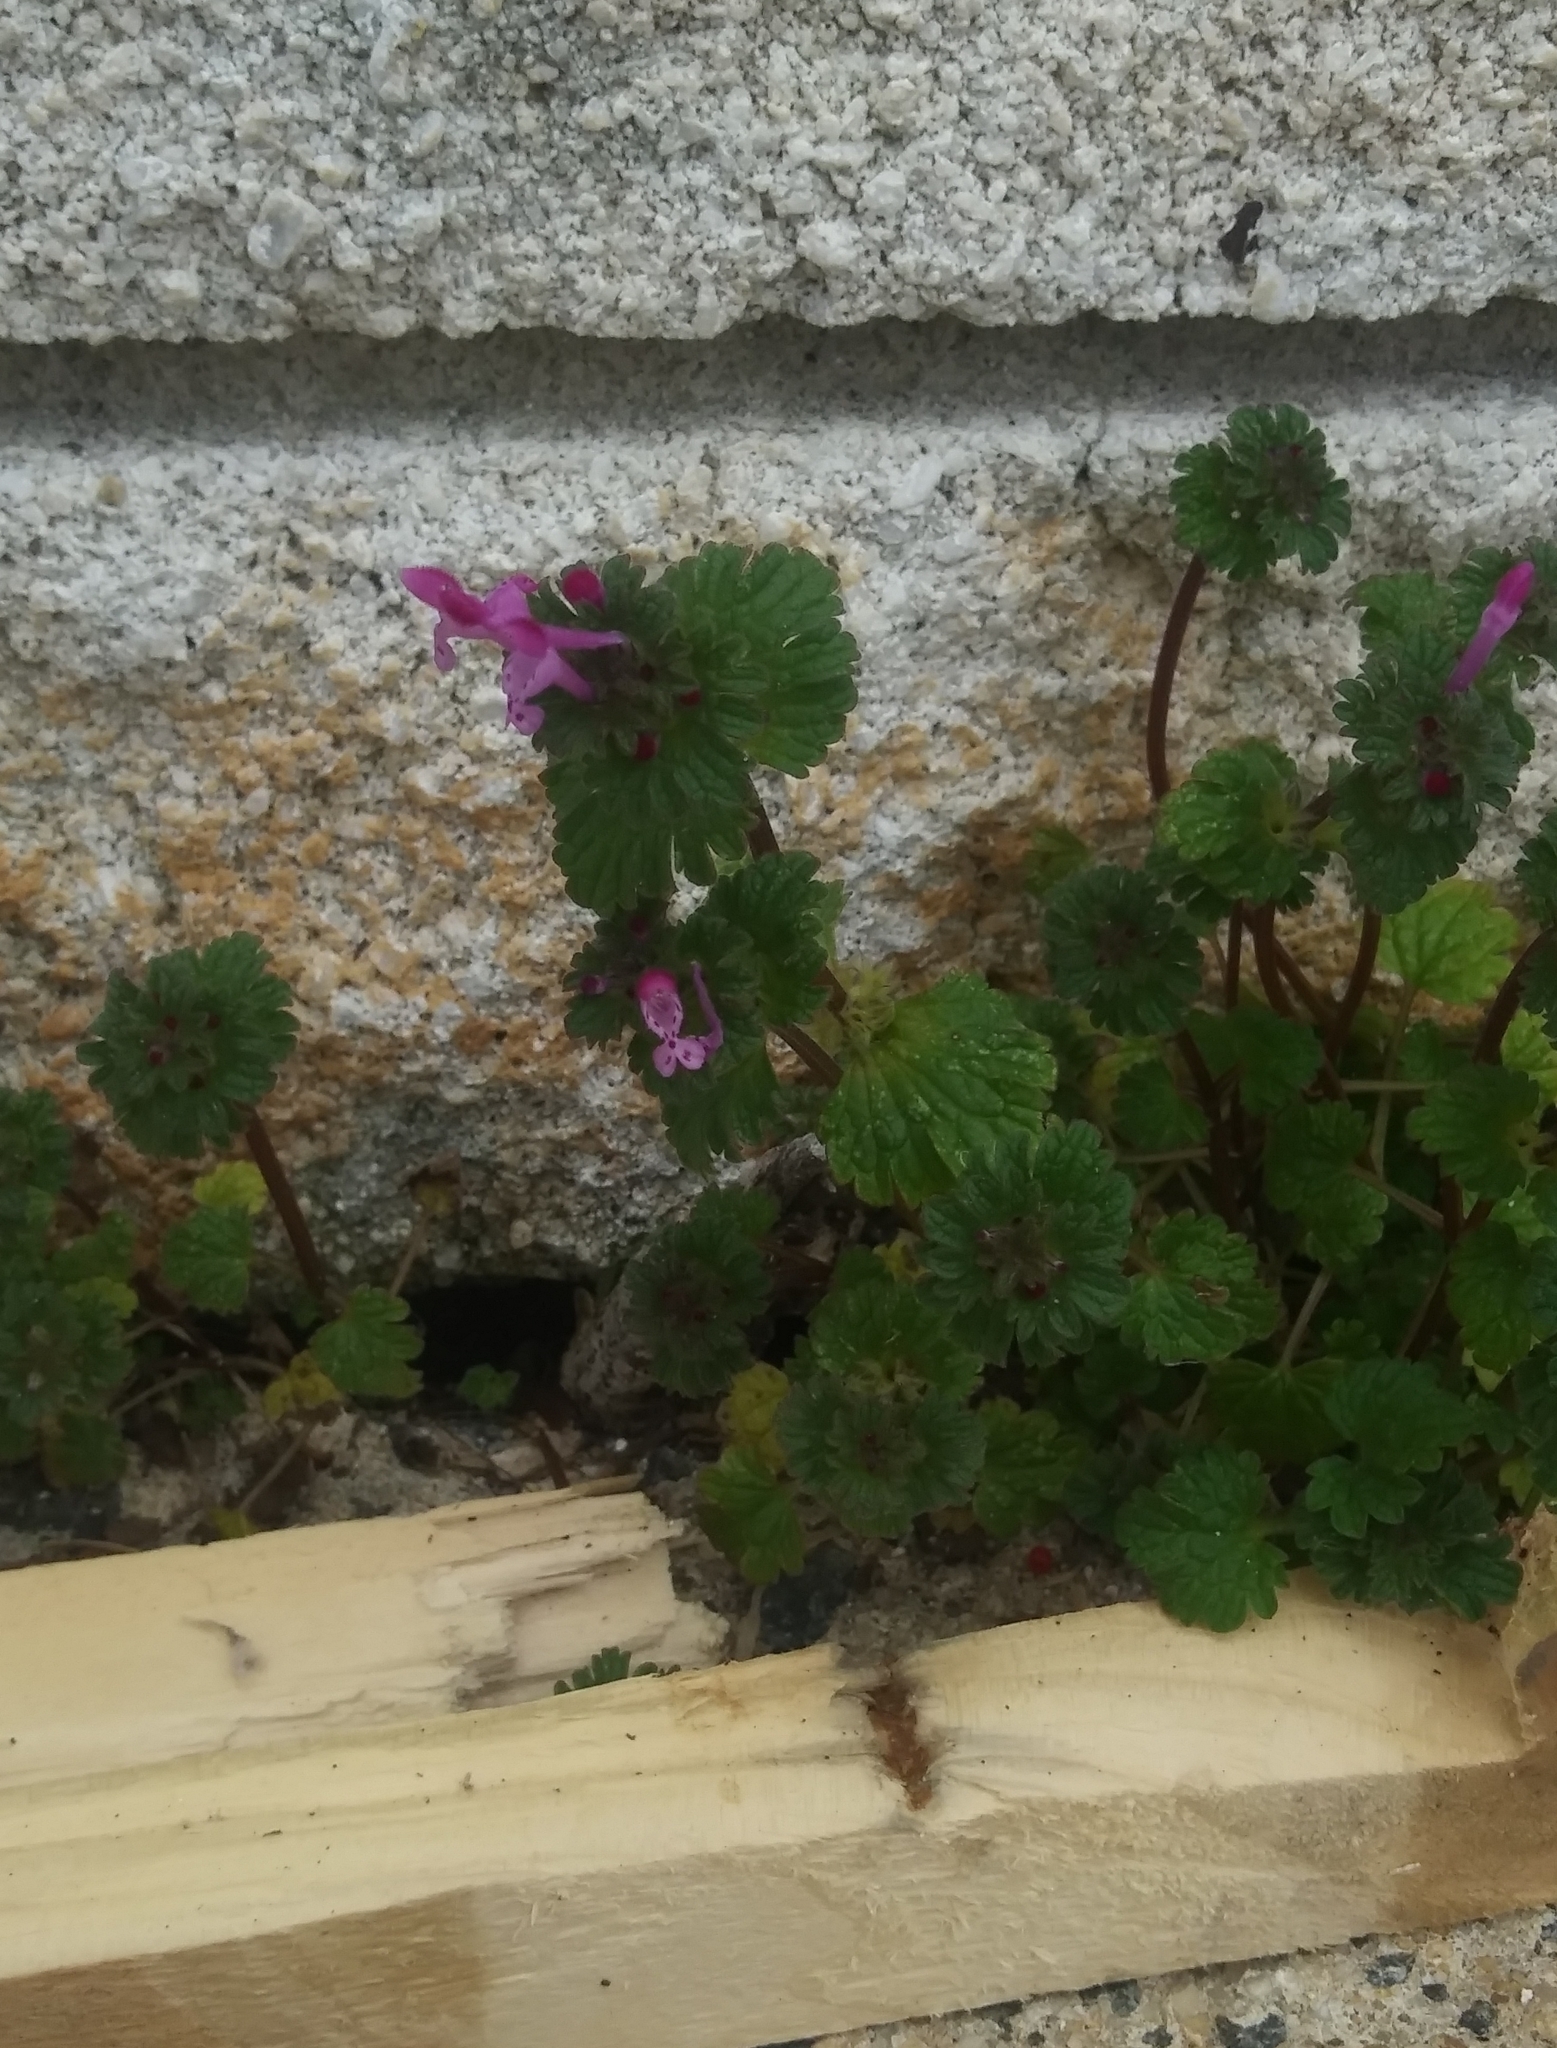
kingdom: Plantae
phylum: Tracheophyta
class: Magnoliopsida
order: Lamiales
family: Lamiaceae
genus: Lamium
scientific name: Lamium amplexicaule
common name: Henbit dead-nettle
